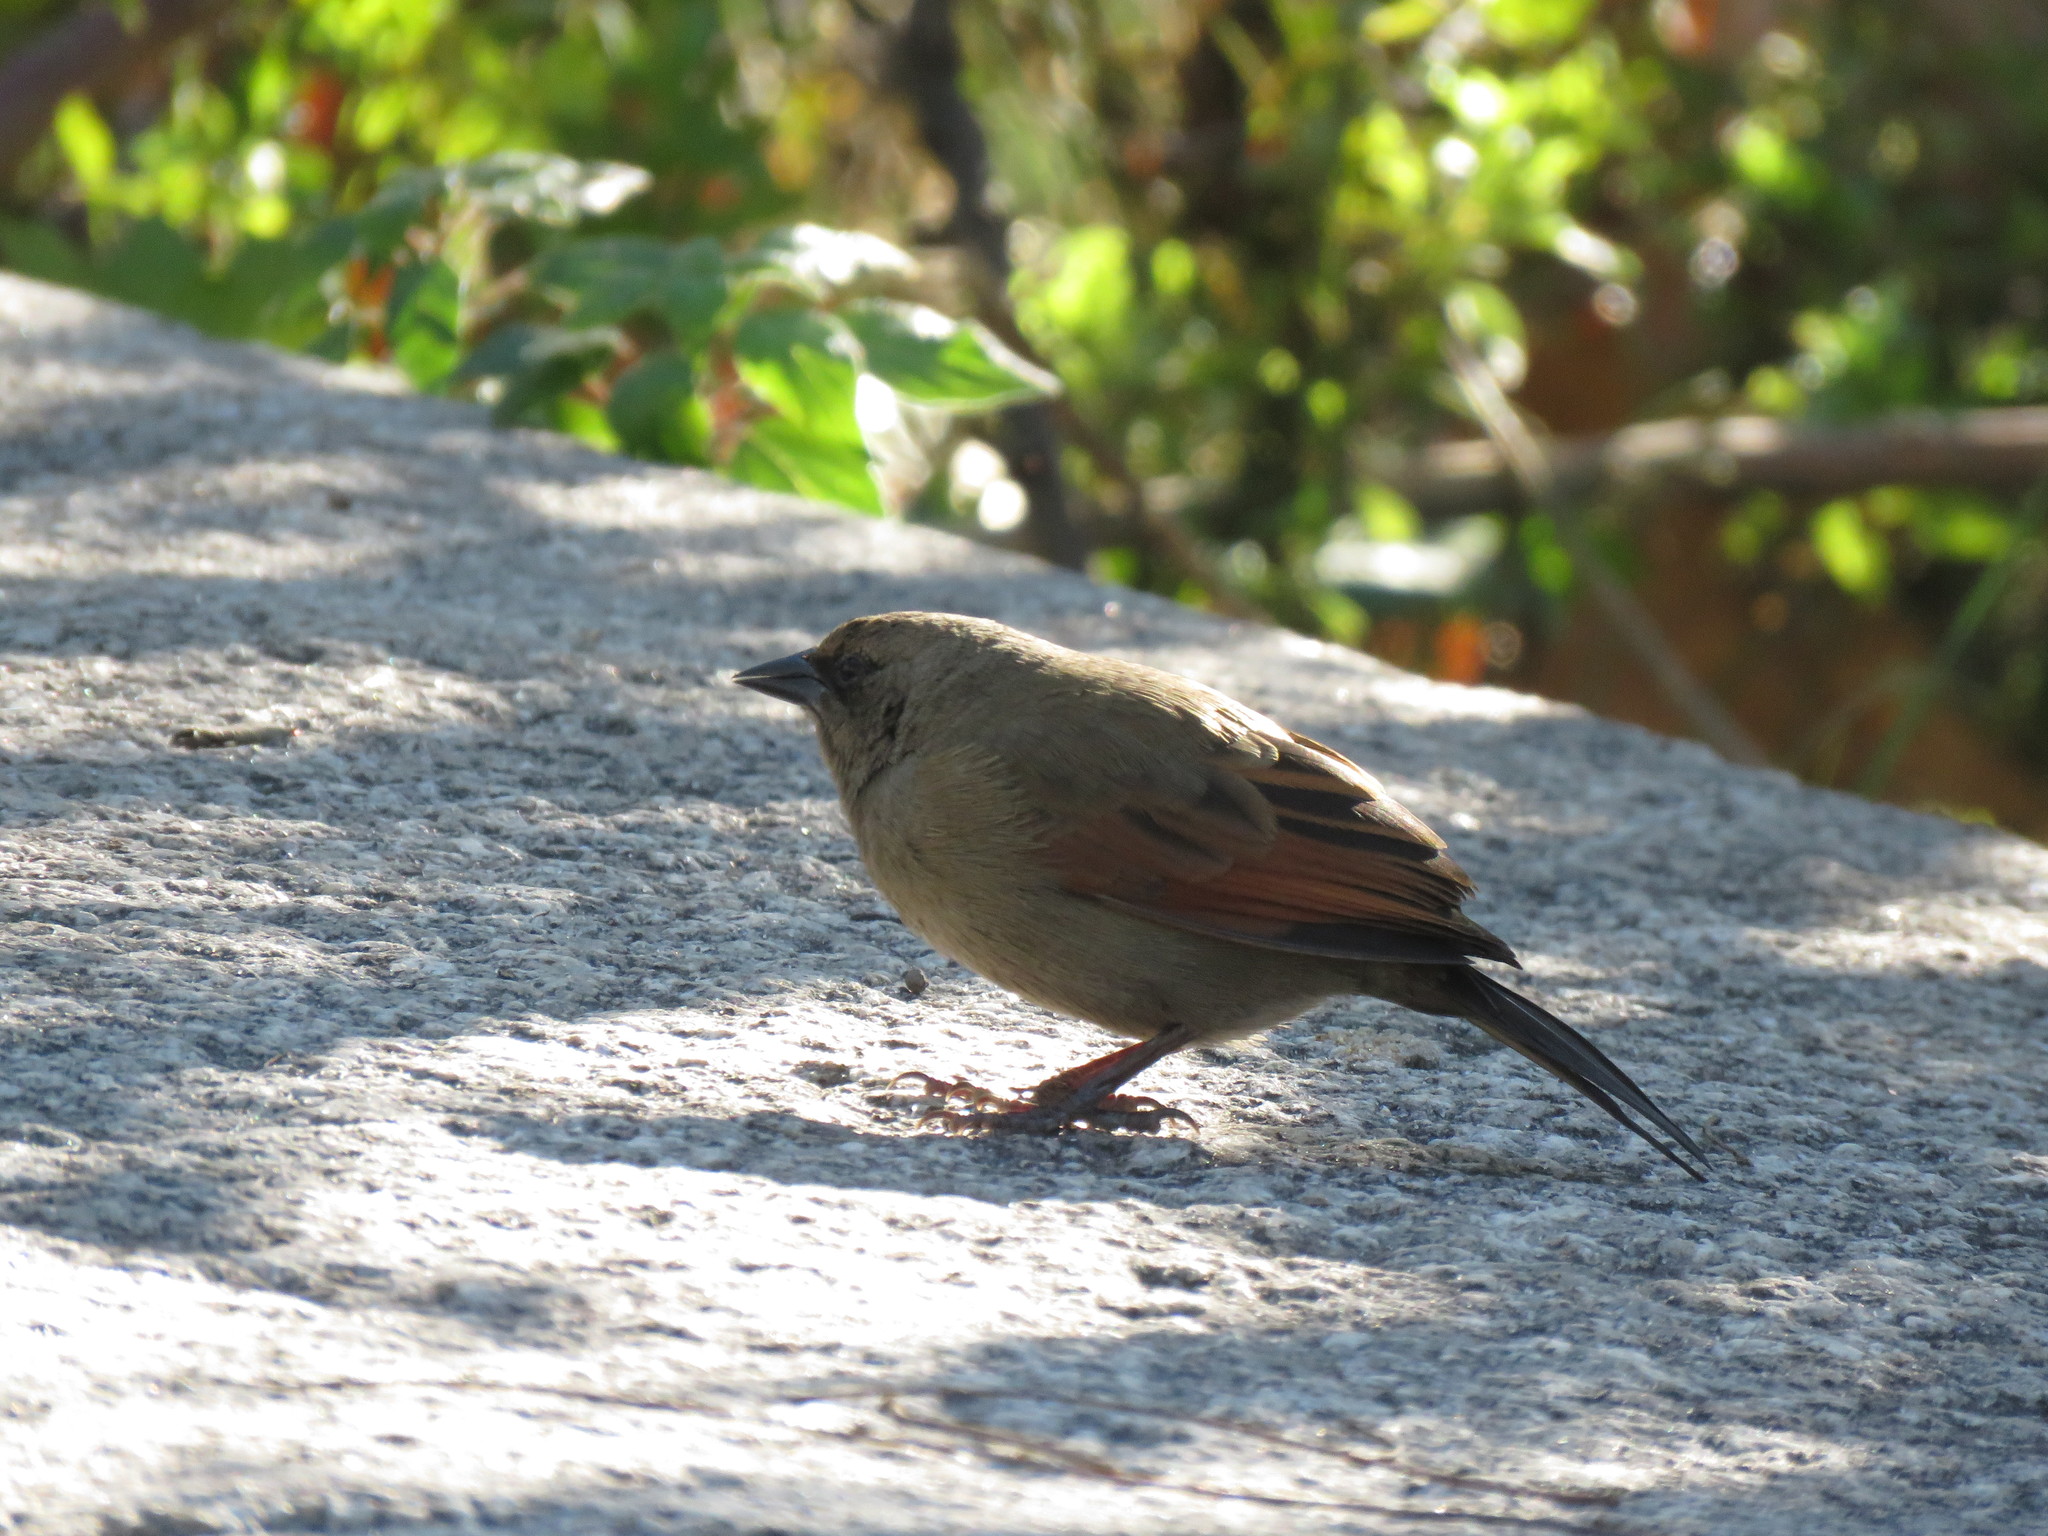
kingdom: Animalia
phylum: Chordata
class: Aves
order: Passeriformes
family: Icteridae
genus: Agelaioides
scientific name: Agelaioides badius
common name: Baywing
